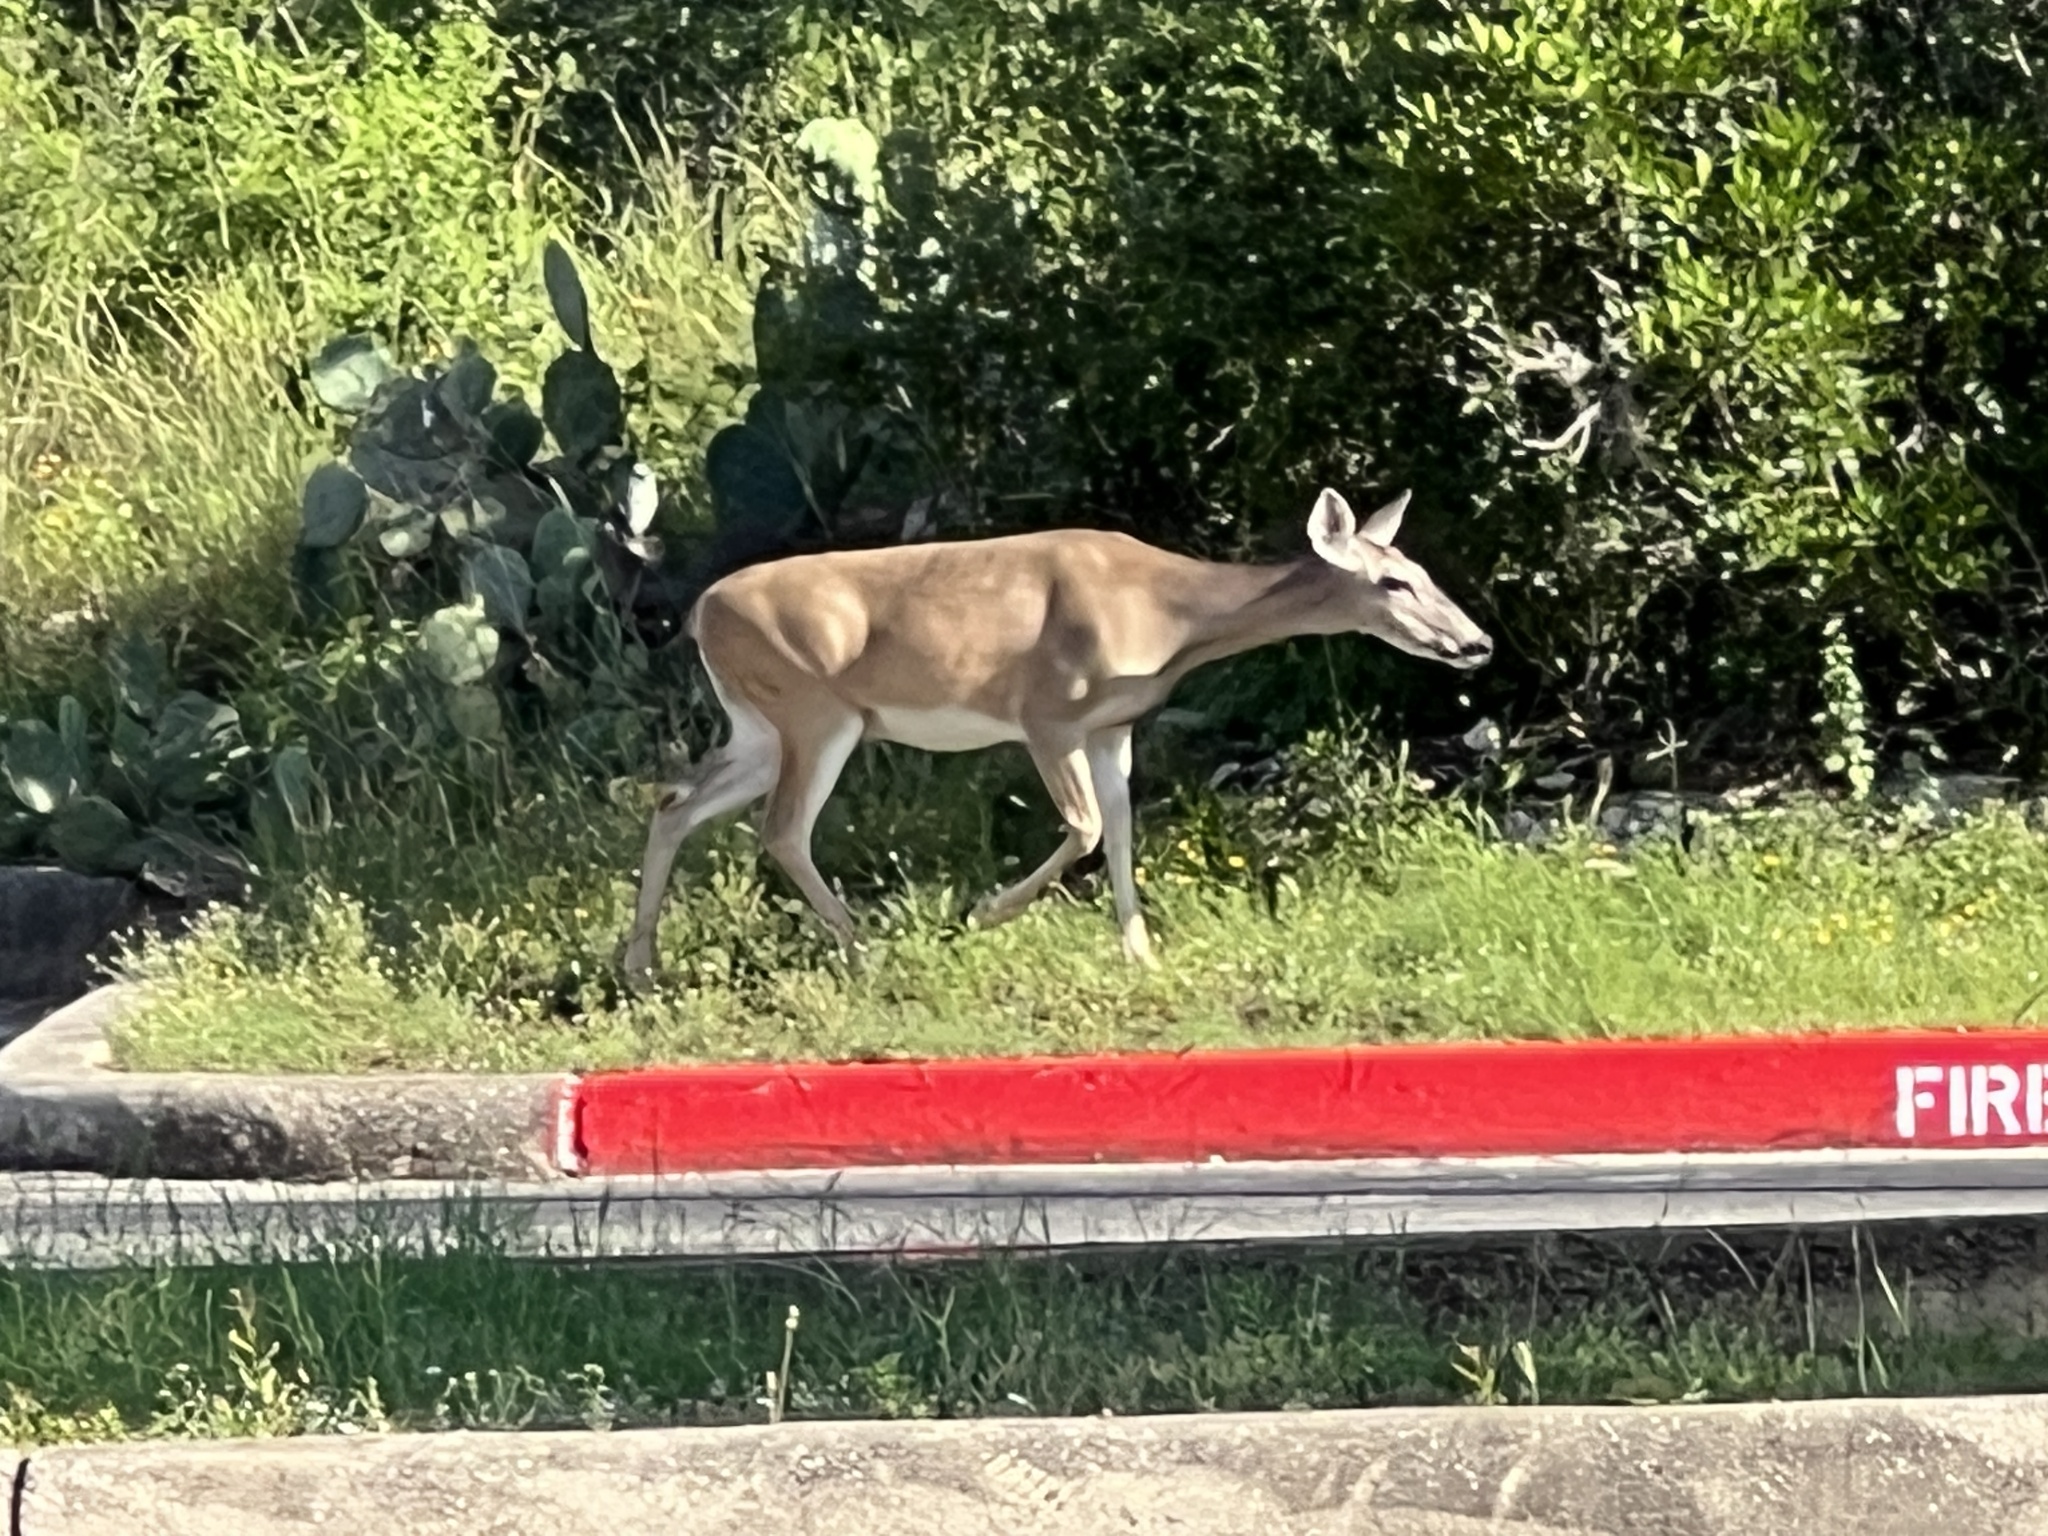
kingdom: Animalia
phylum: Chordata
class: Mammalia
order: Artiodactyla
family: Cervidae
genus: Odocoileus
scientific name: Odocoileus virginianus
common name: White-tailed deer
